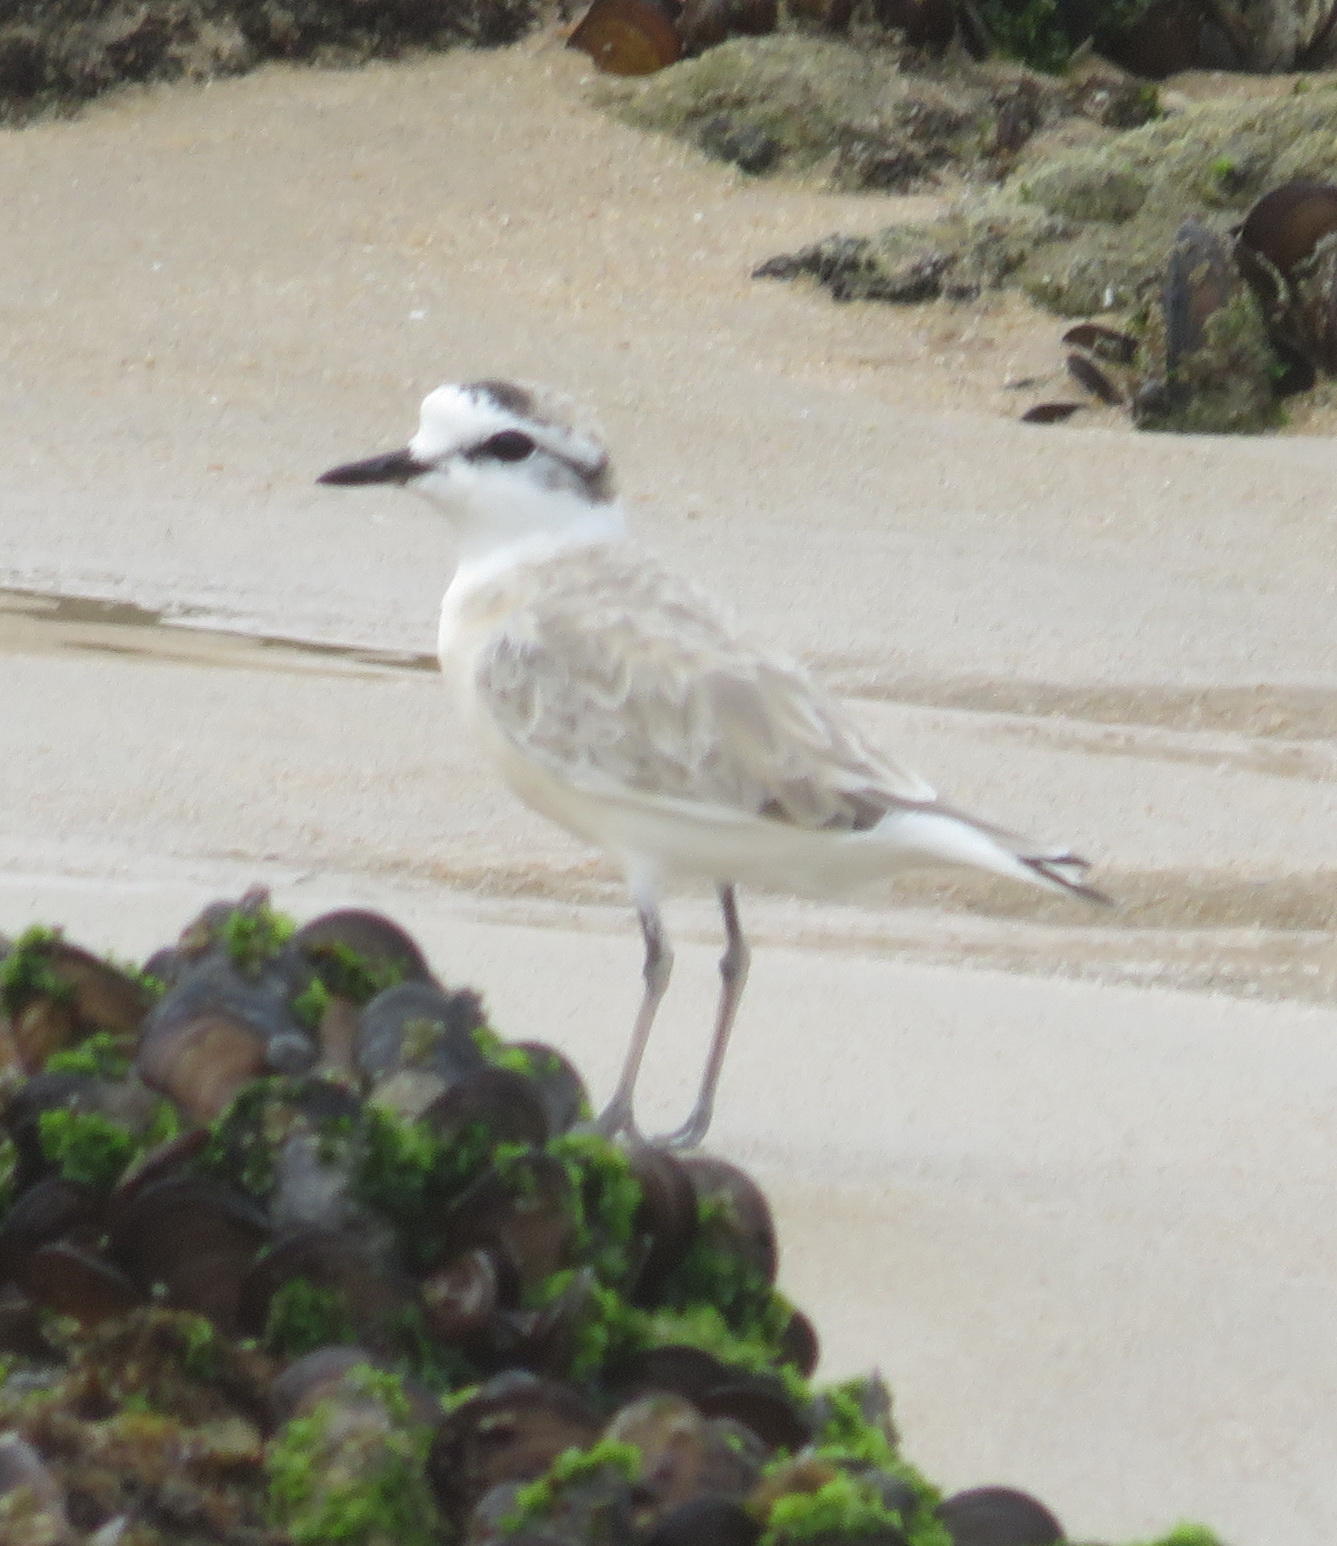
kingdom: Animalia
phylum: Chordata
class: Aves
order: Charadriiformes
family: Charadriidae
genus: Anarhynchus
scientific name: Anarhynchus
